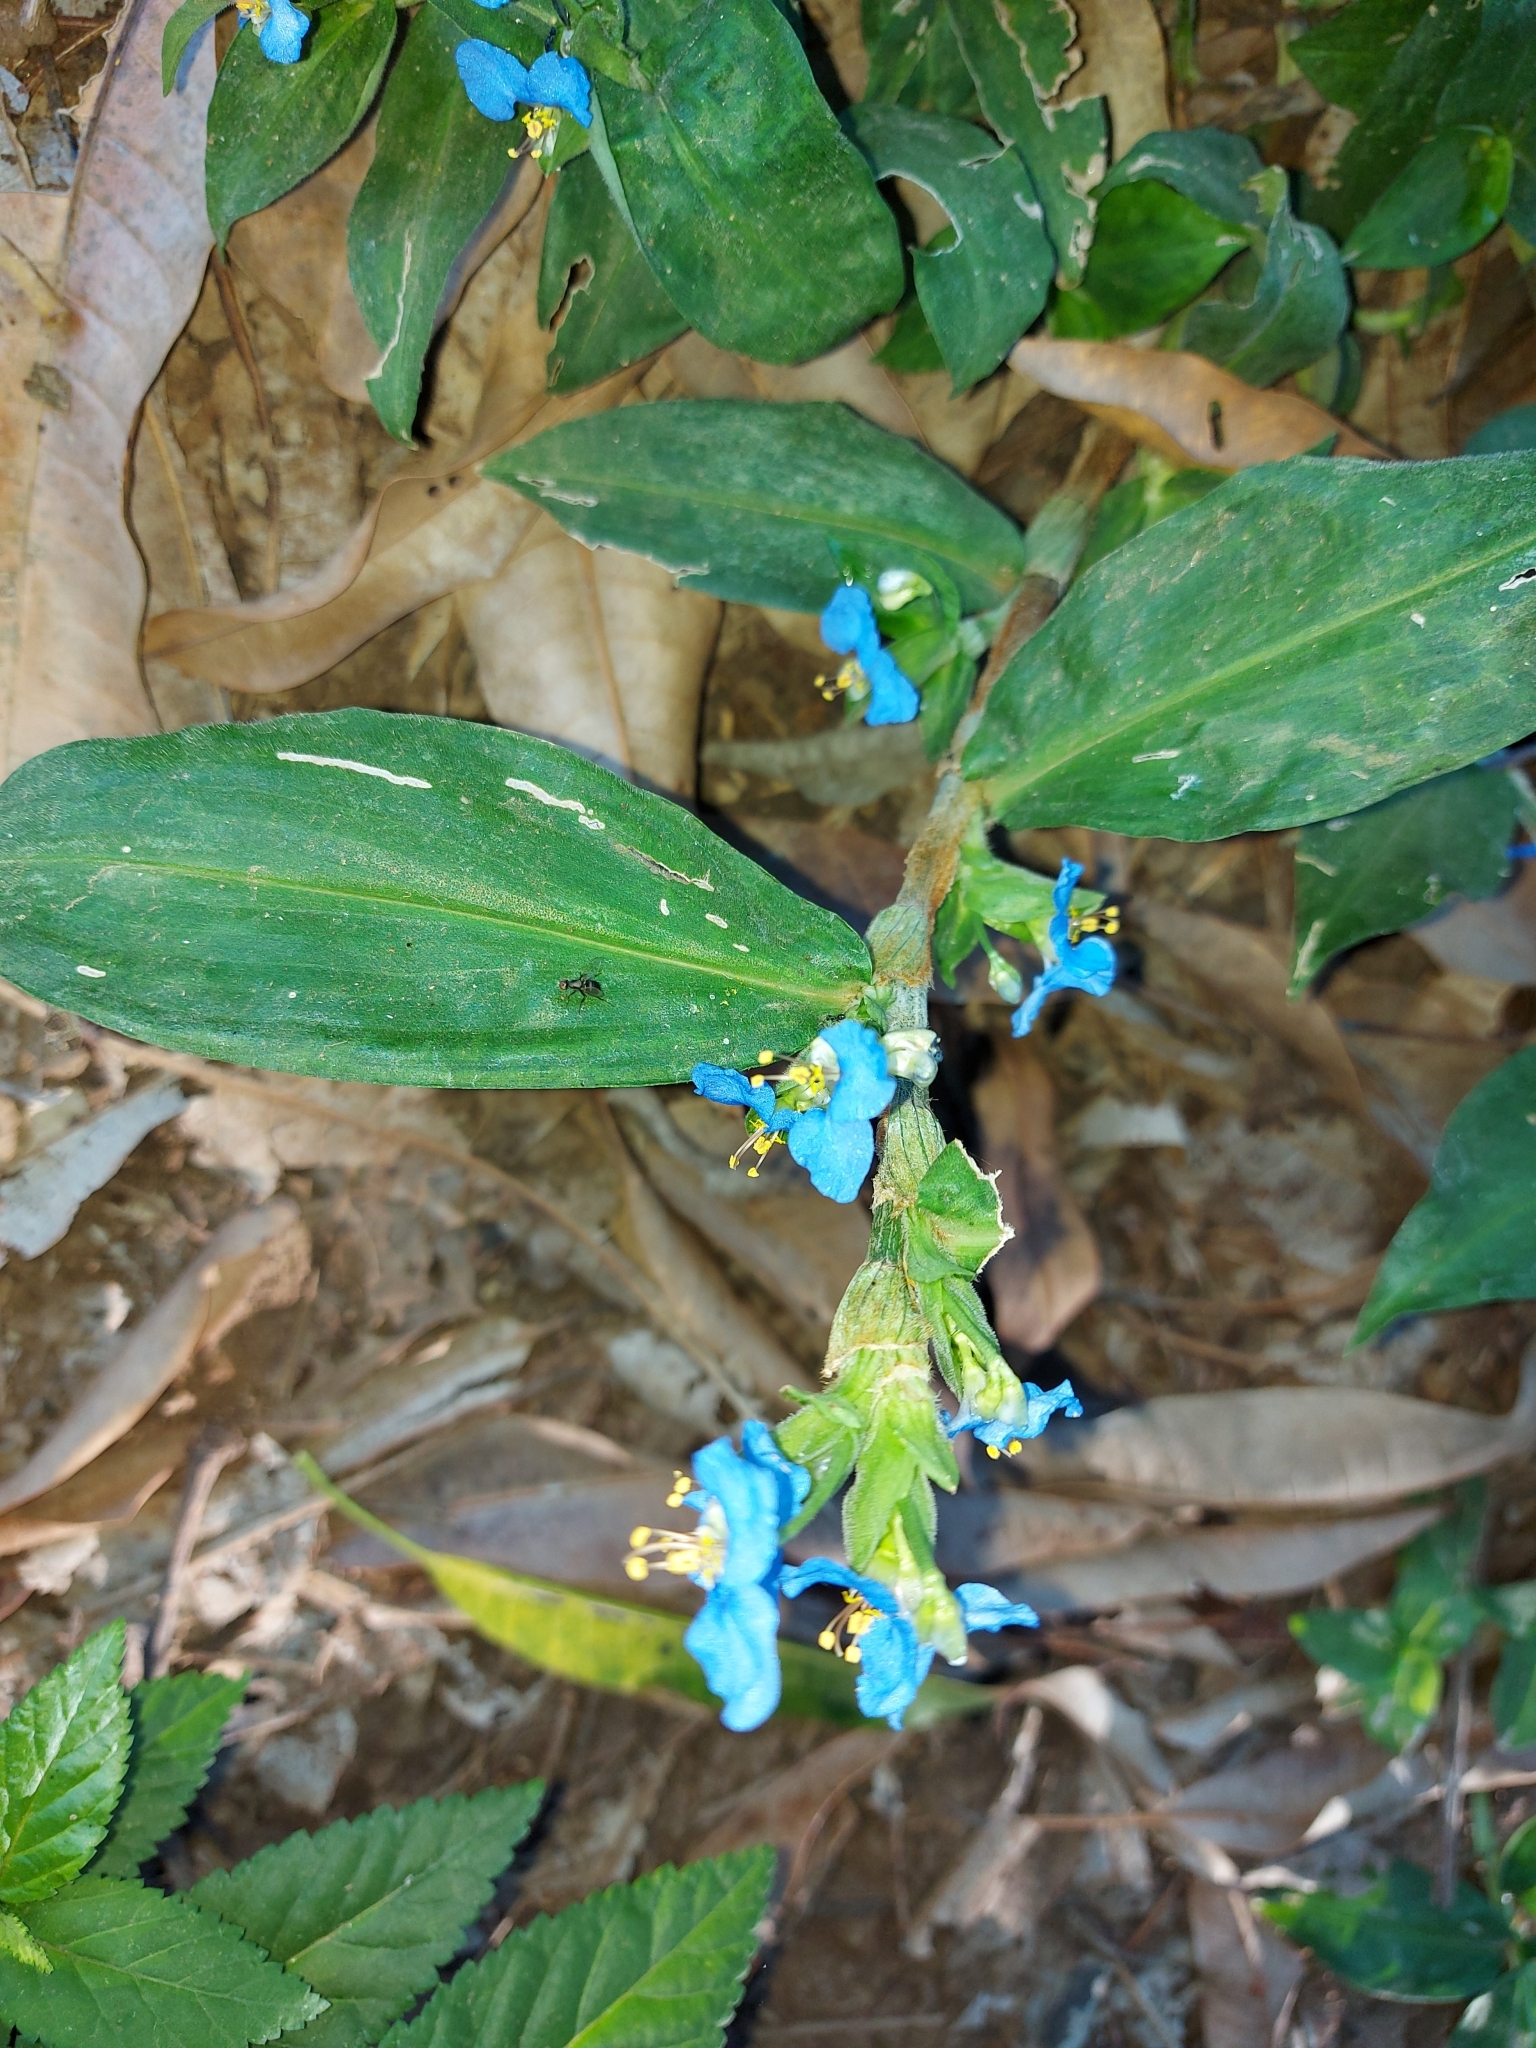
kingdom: Plantae
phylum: Tracheophyta
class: Liliopsida
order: Commelinales
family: Commelinaceae
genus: Commelina
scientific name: Commelina obliqua
